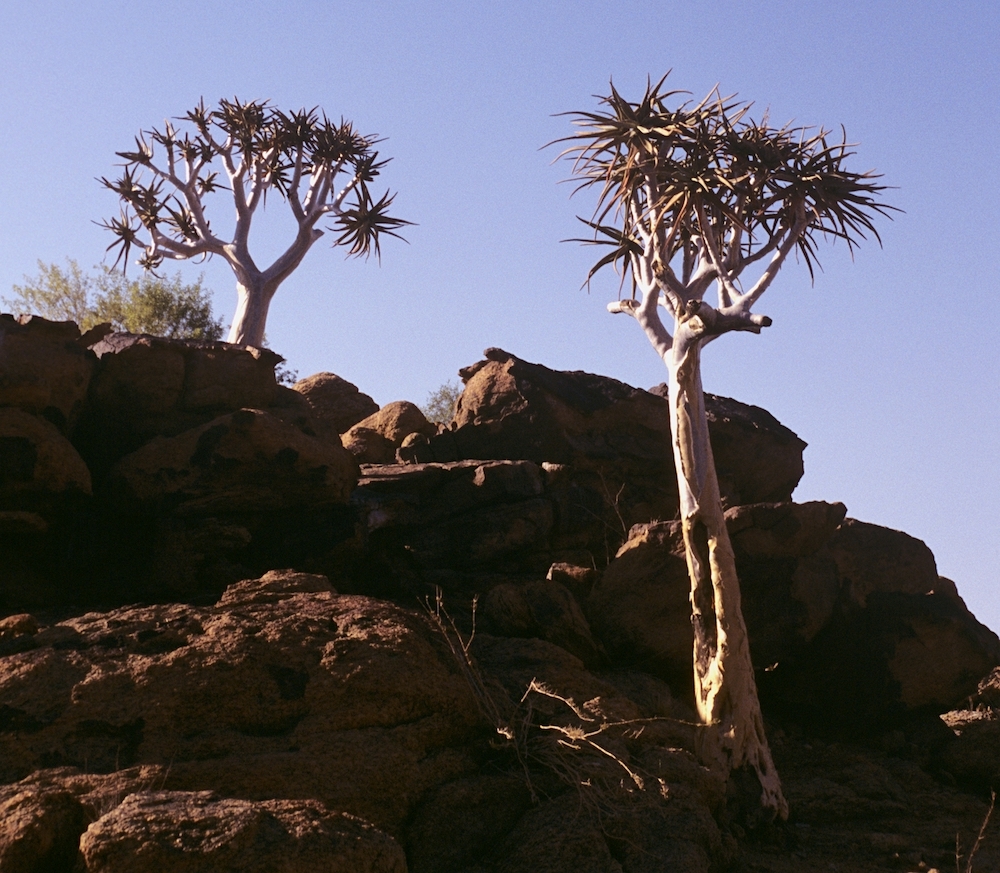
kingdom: Plantae
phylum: Tracheophyta
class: Liliopsida
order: Asparagales
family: Asphodelaceae
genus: Aloidendron
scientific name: Aloidendron dichotomum
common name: Quiver tree
